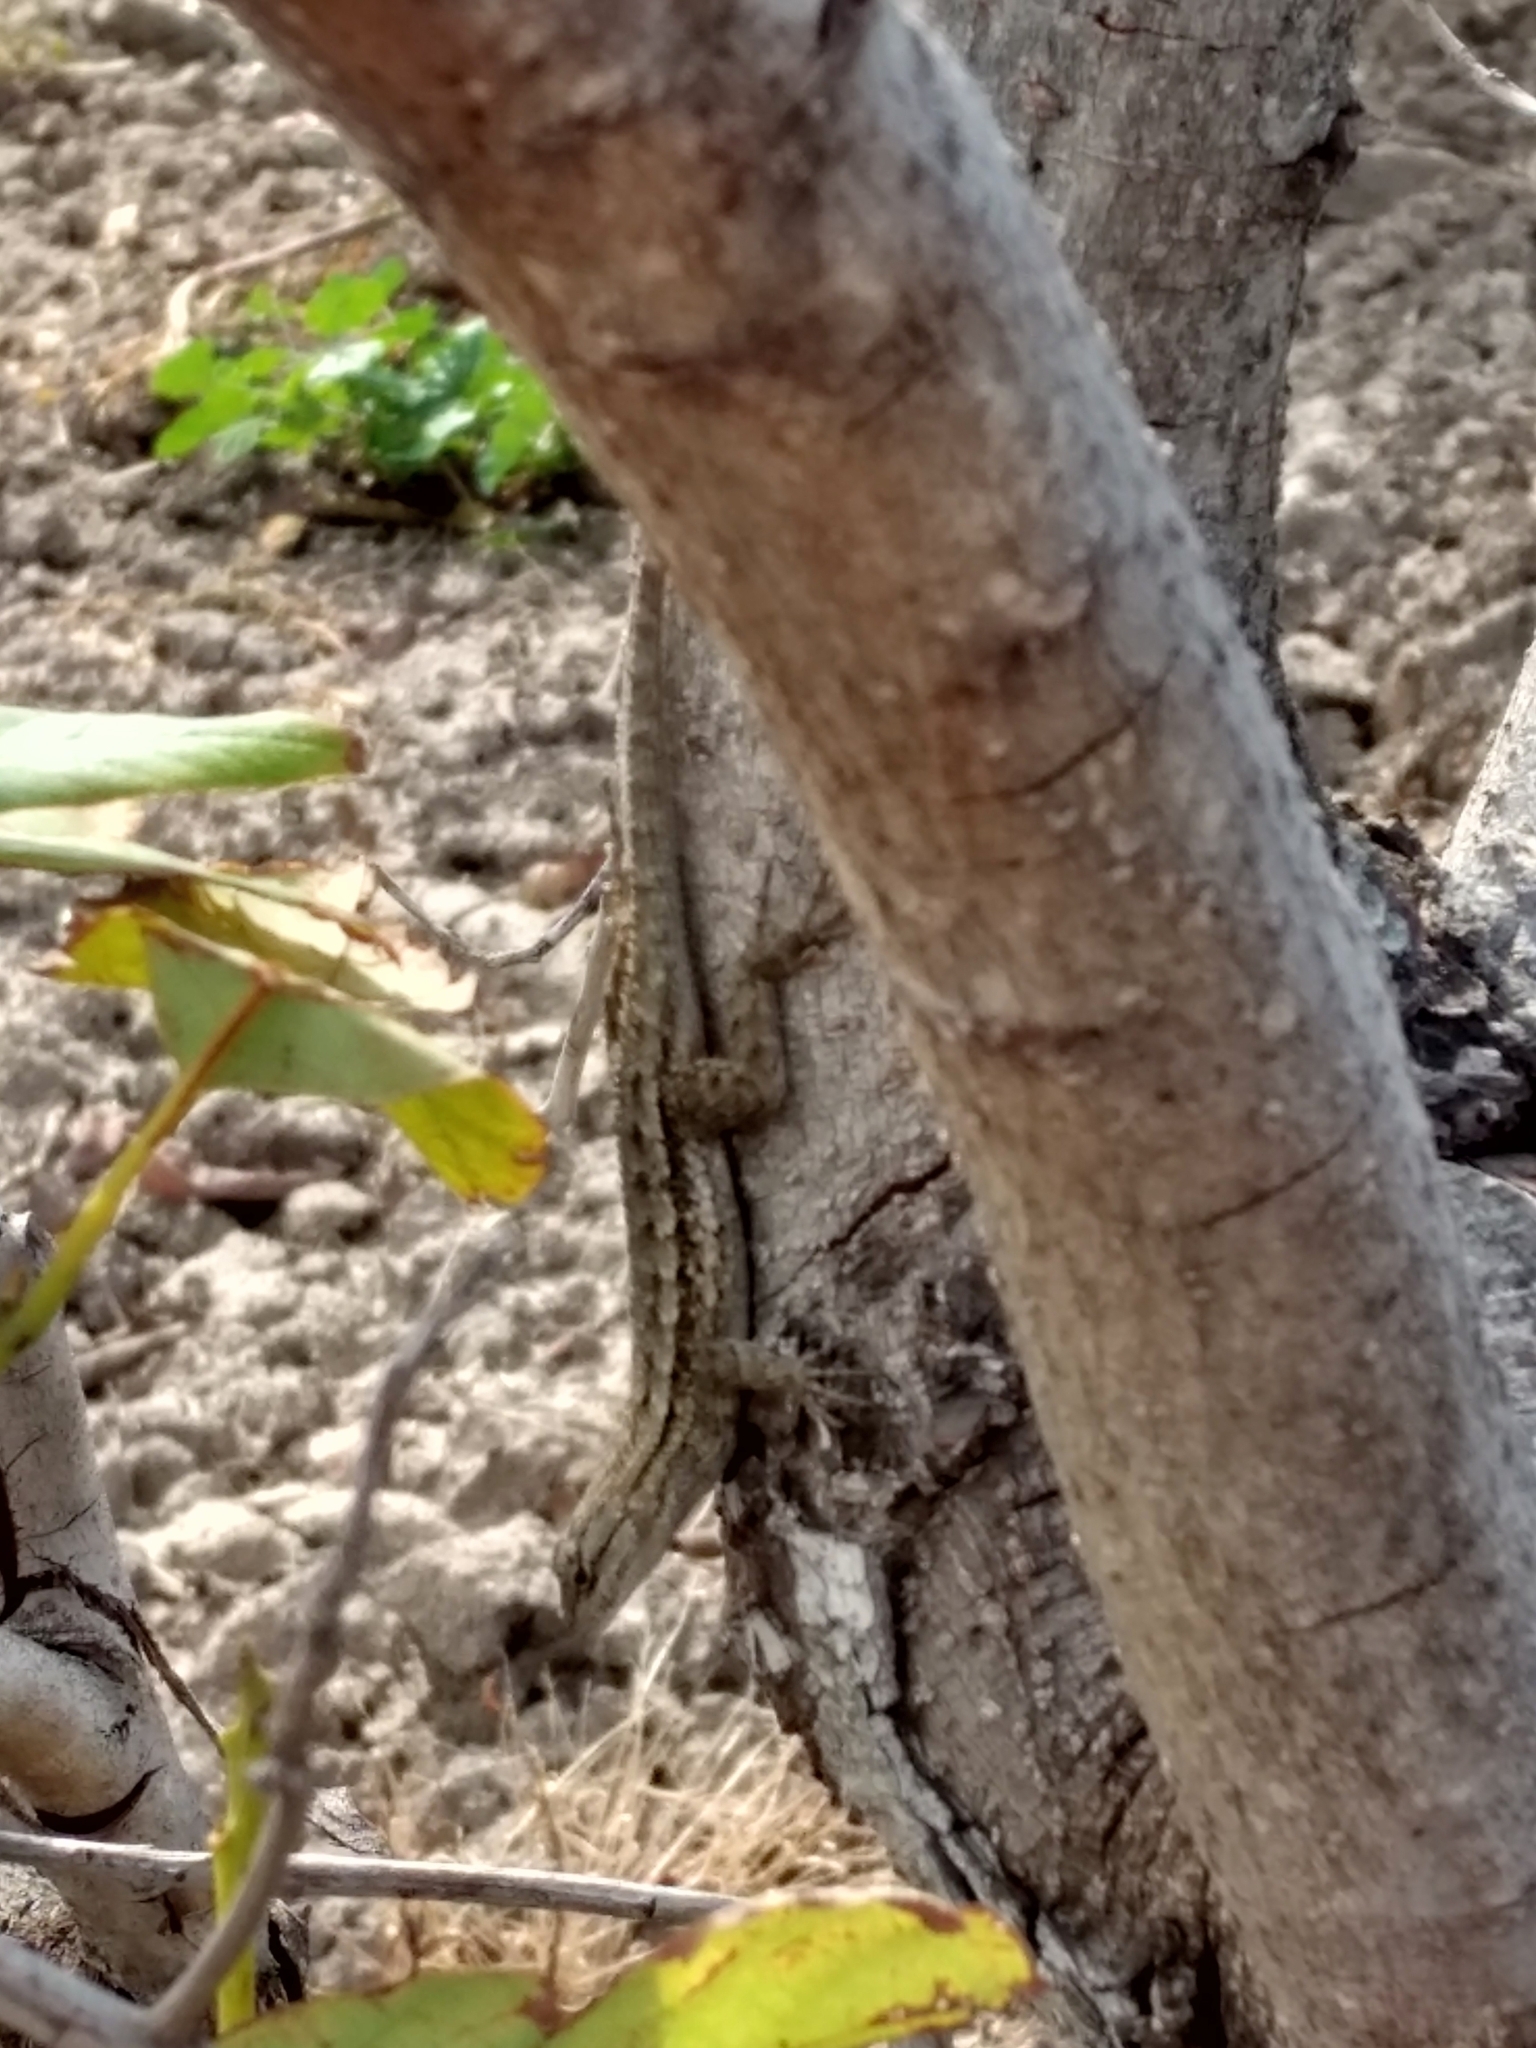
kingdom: Animalia
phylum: Chordata
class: Squamata
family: Phrynosomatidae
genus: Sceloporus
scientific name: Sceloporus occidentalis
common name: Western fence lizard
